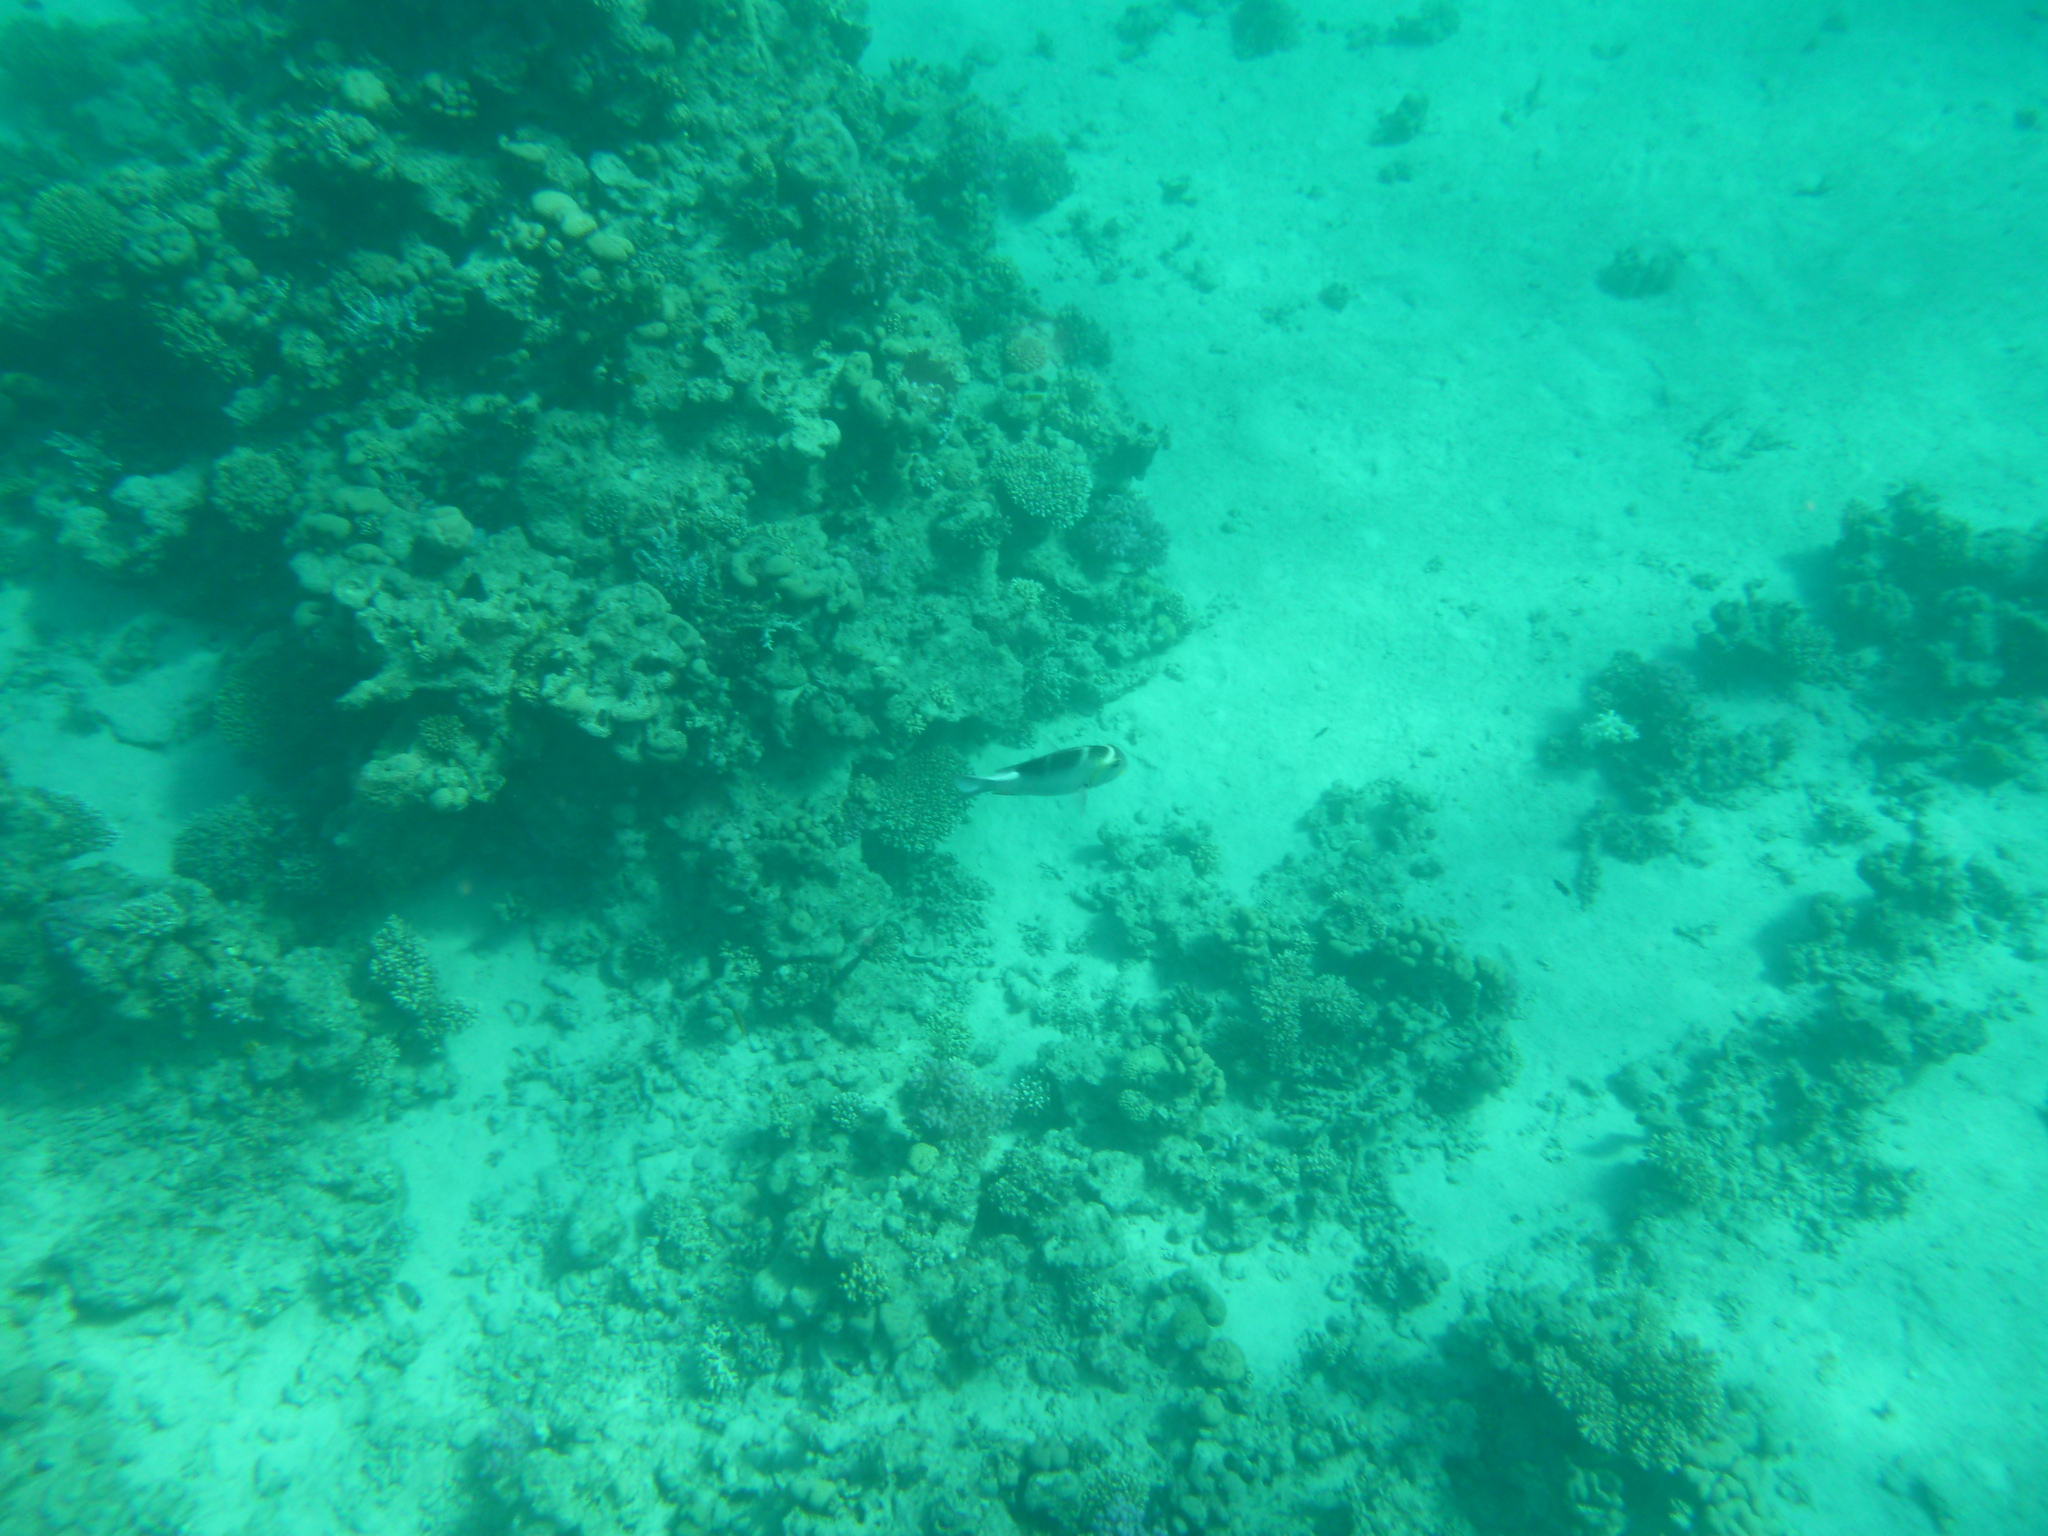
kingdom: Animalia
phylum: Chordata
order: Perciformes
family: Lethrinidae
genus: Monotaxis
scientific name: Monotaxis grandoculis
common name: Bigeye emperor
